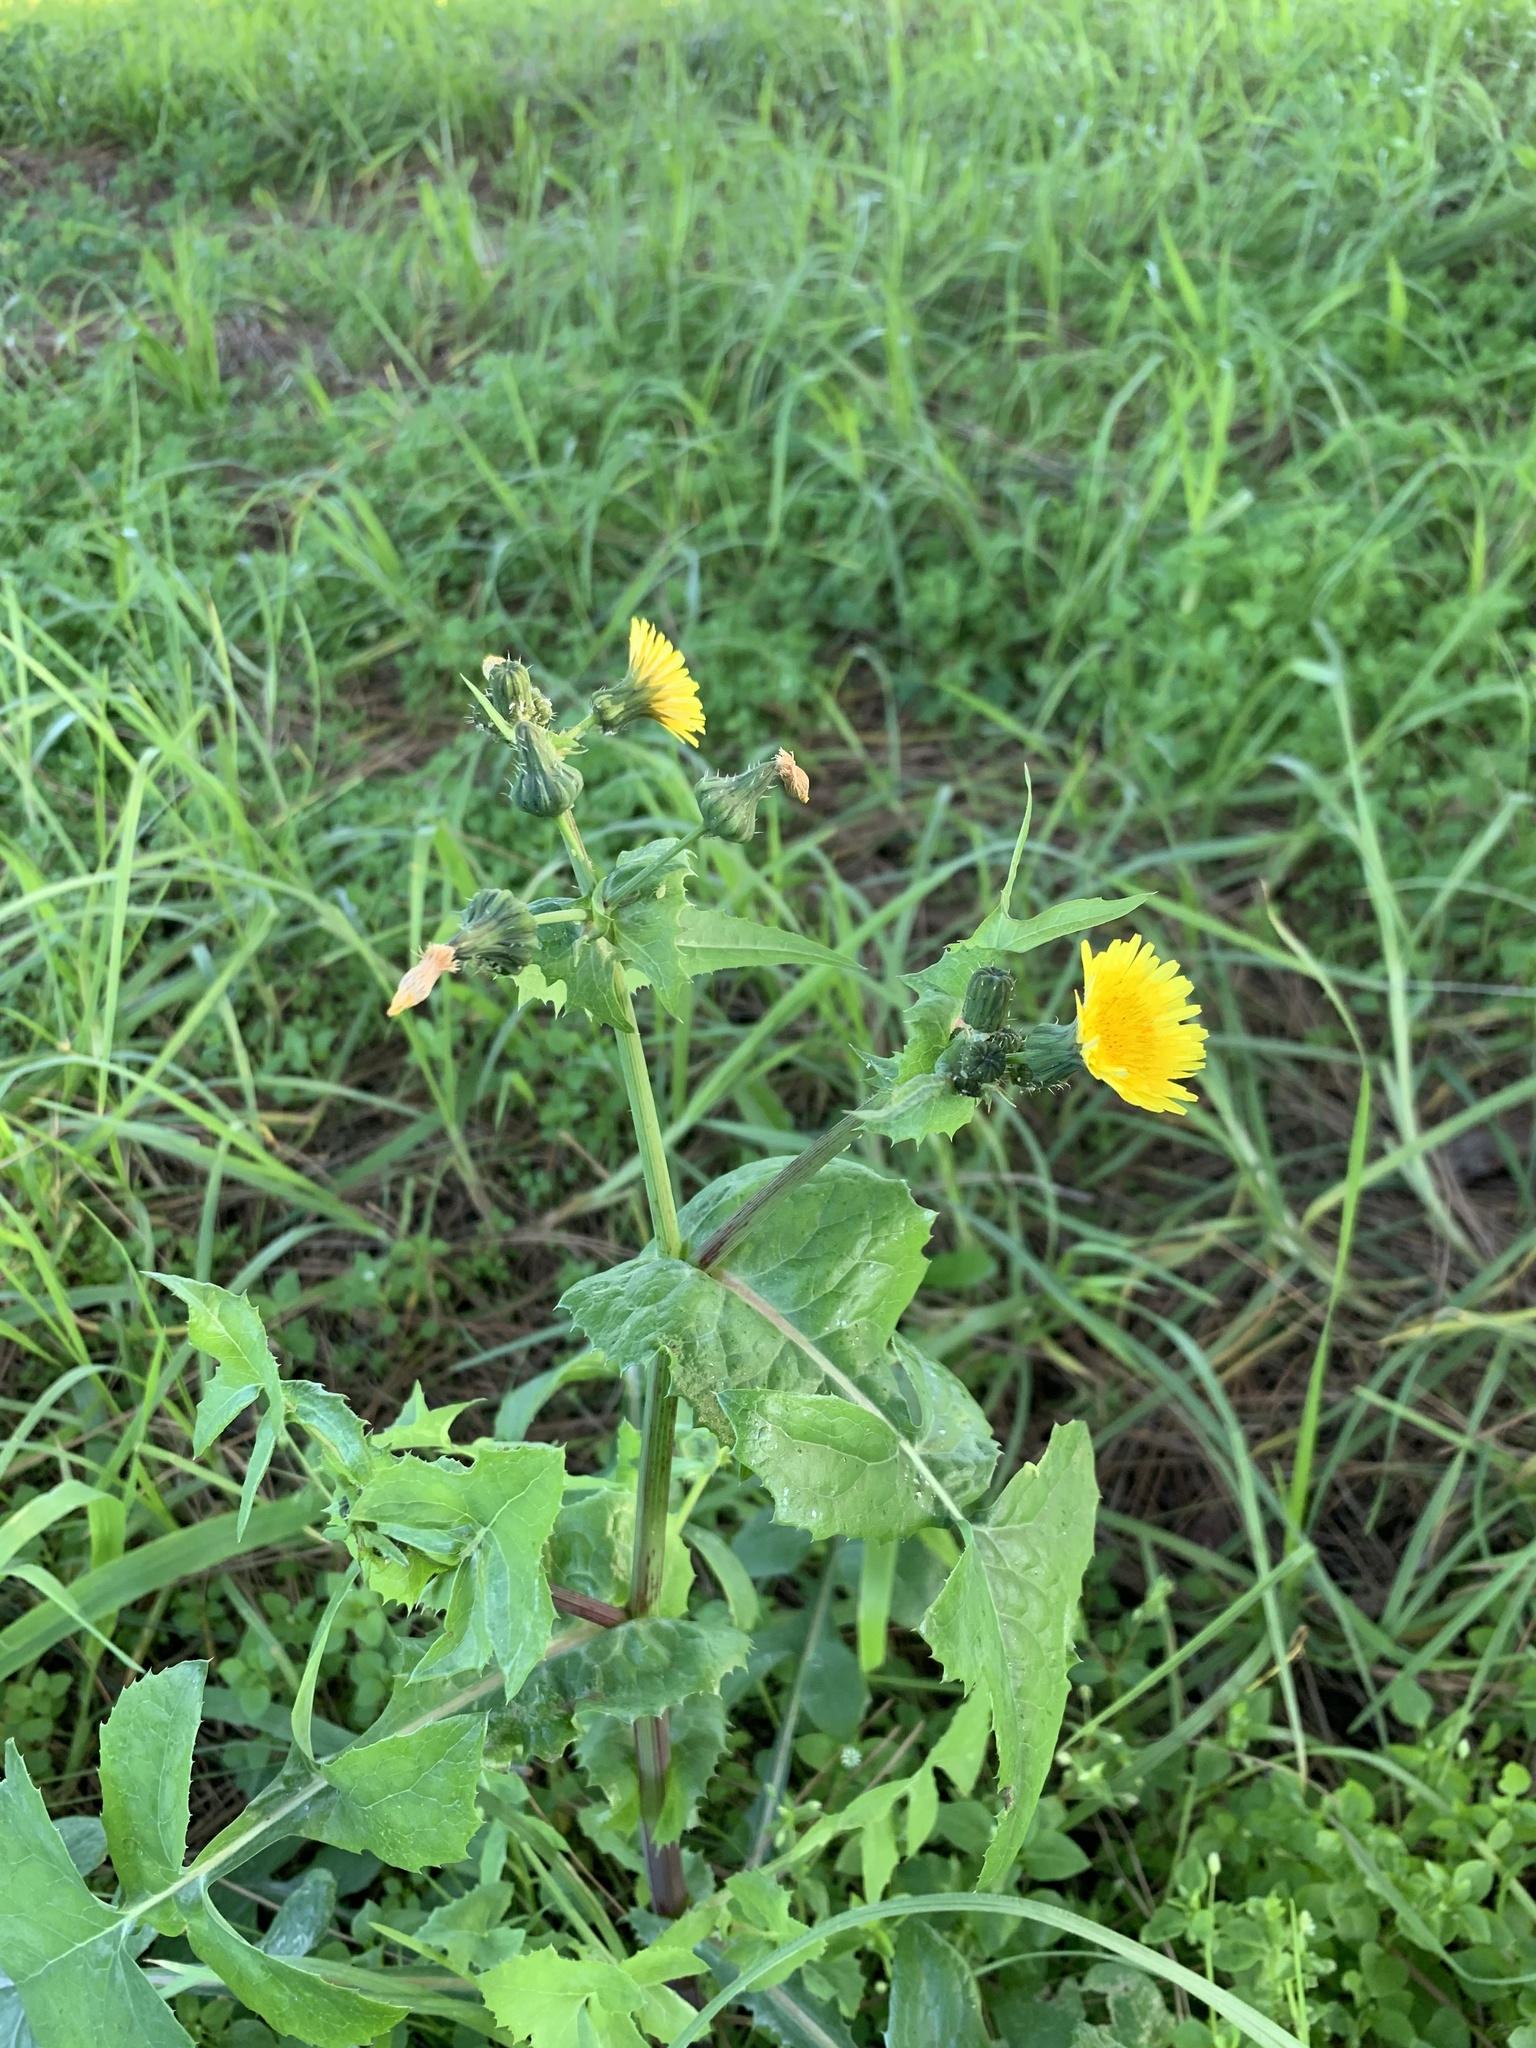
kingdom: Plantae
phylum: Tracheophyta
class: Magnoliopsida
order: Asterales
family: Asteraceae
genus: Sonchus
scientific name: Sonchus oleraceus
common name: Common sowthistle
